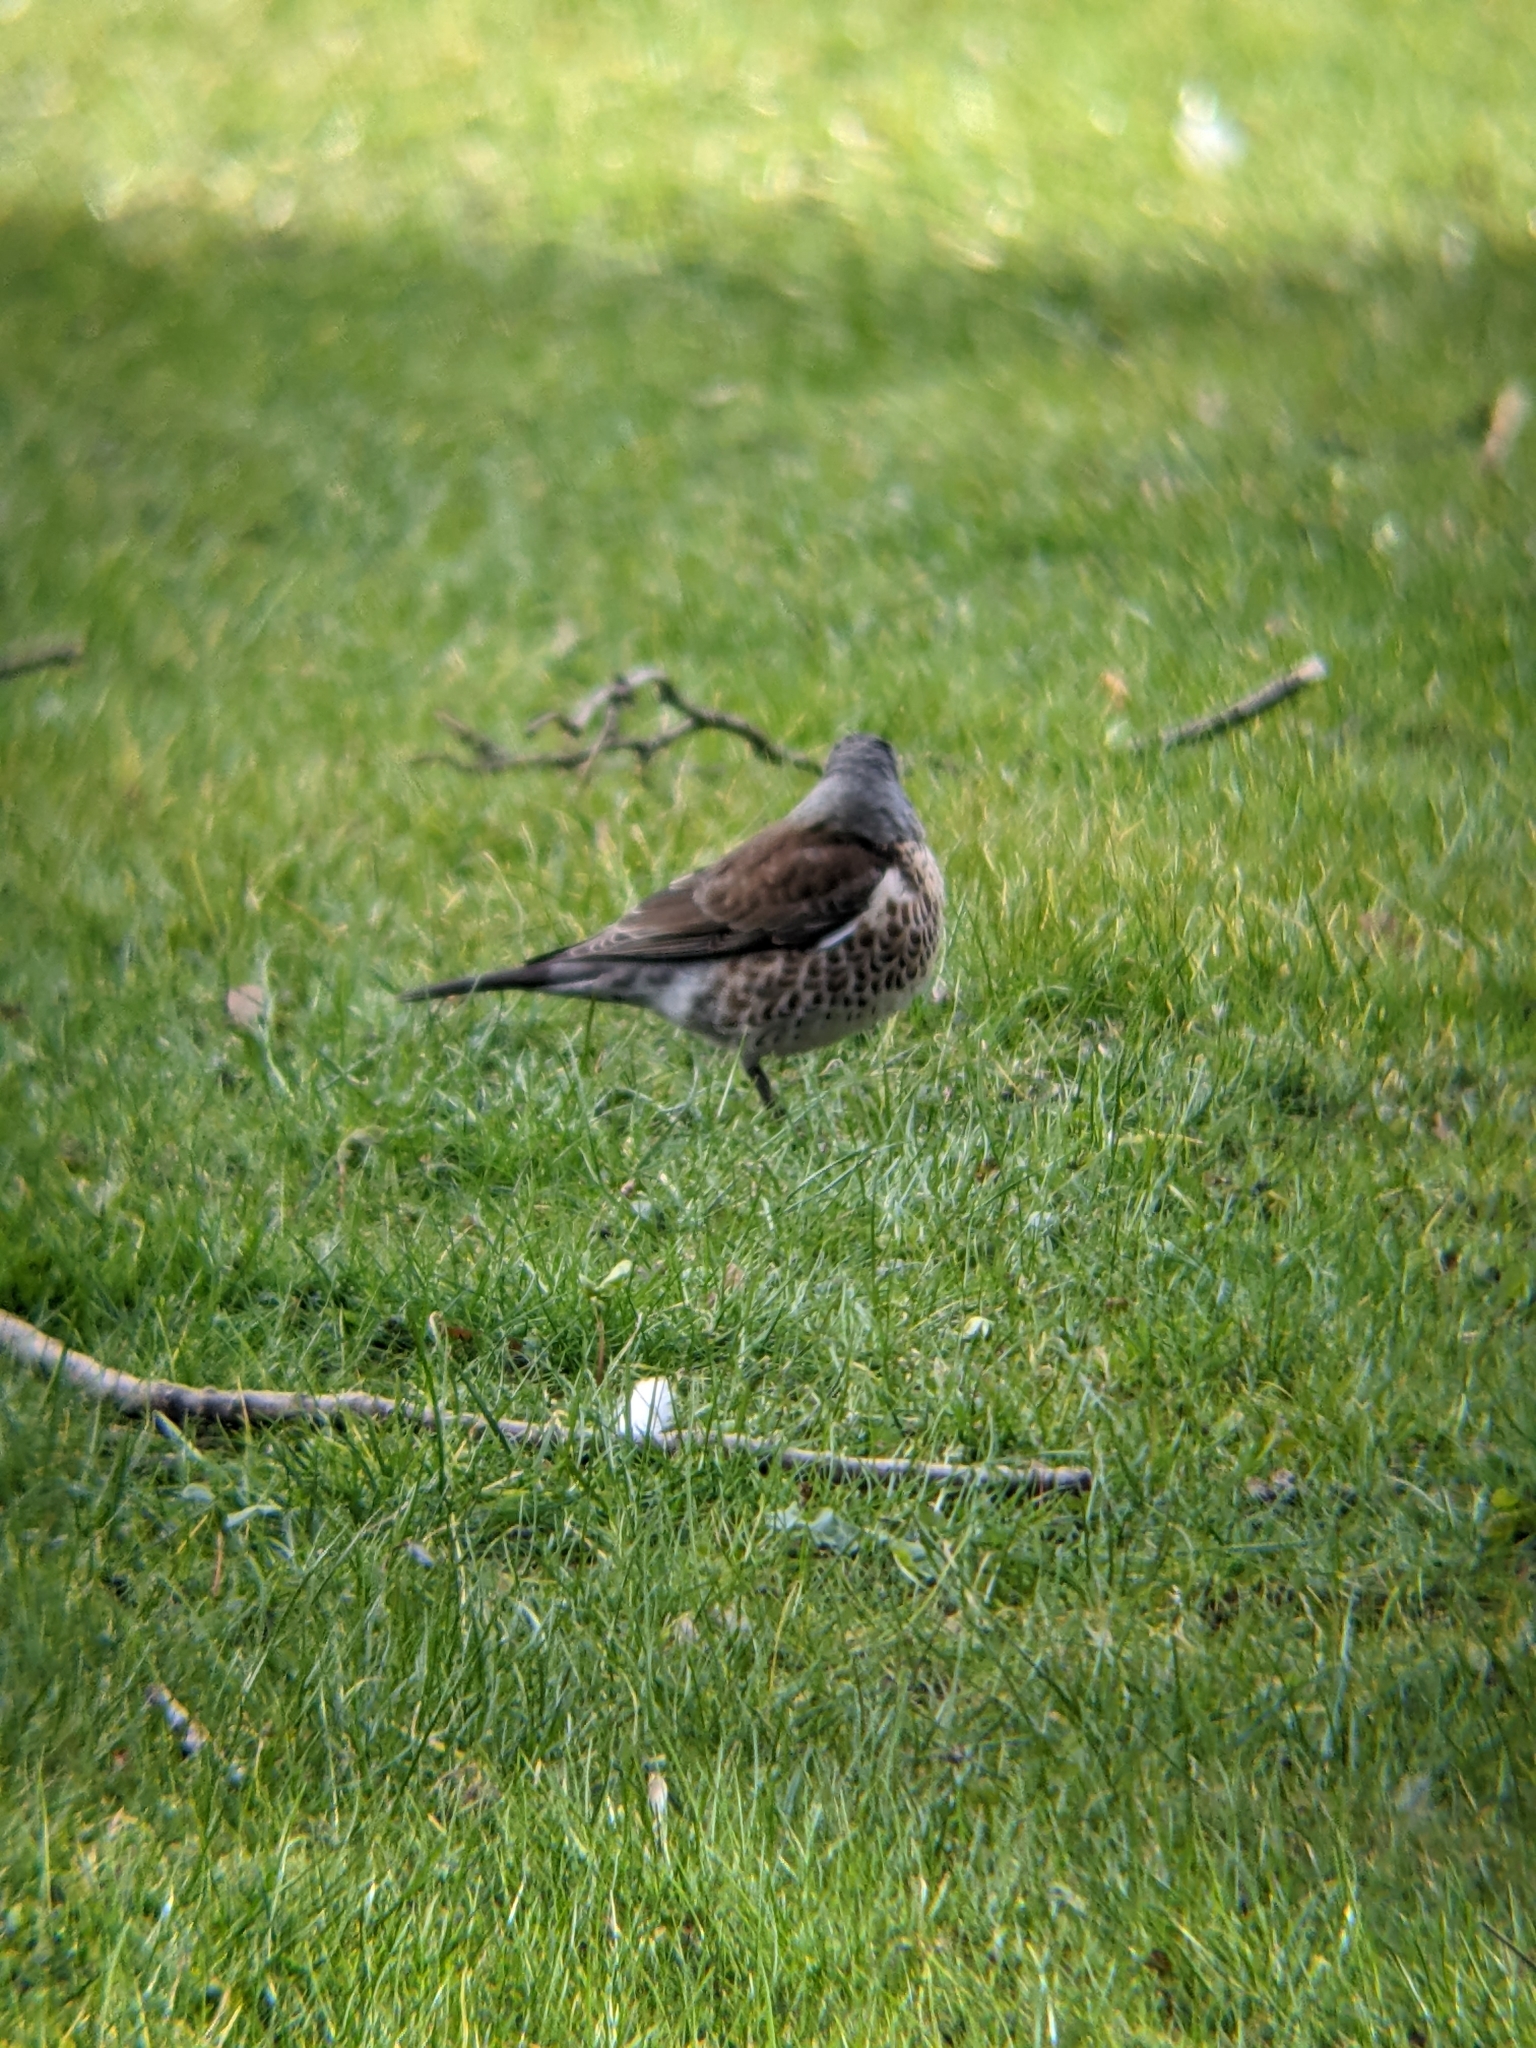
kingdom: Animalia
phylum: Chordata
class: Aves
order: Passeriformes
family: Turdidae
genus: Turdus
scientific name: Turdus pilaris
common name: Fieldfare
